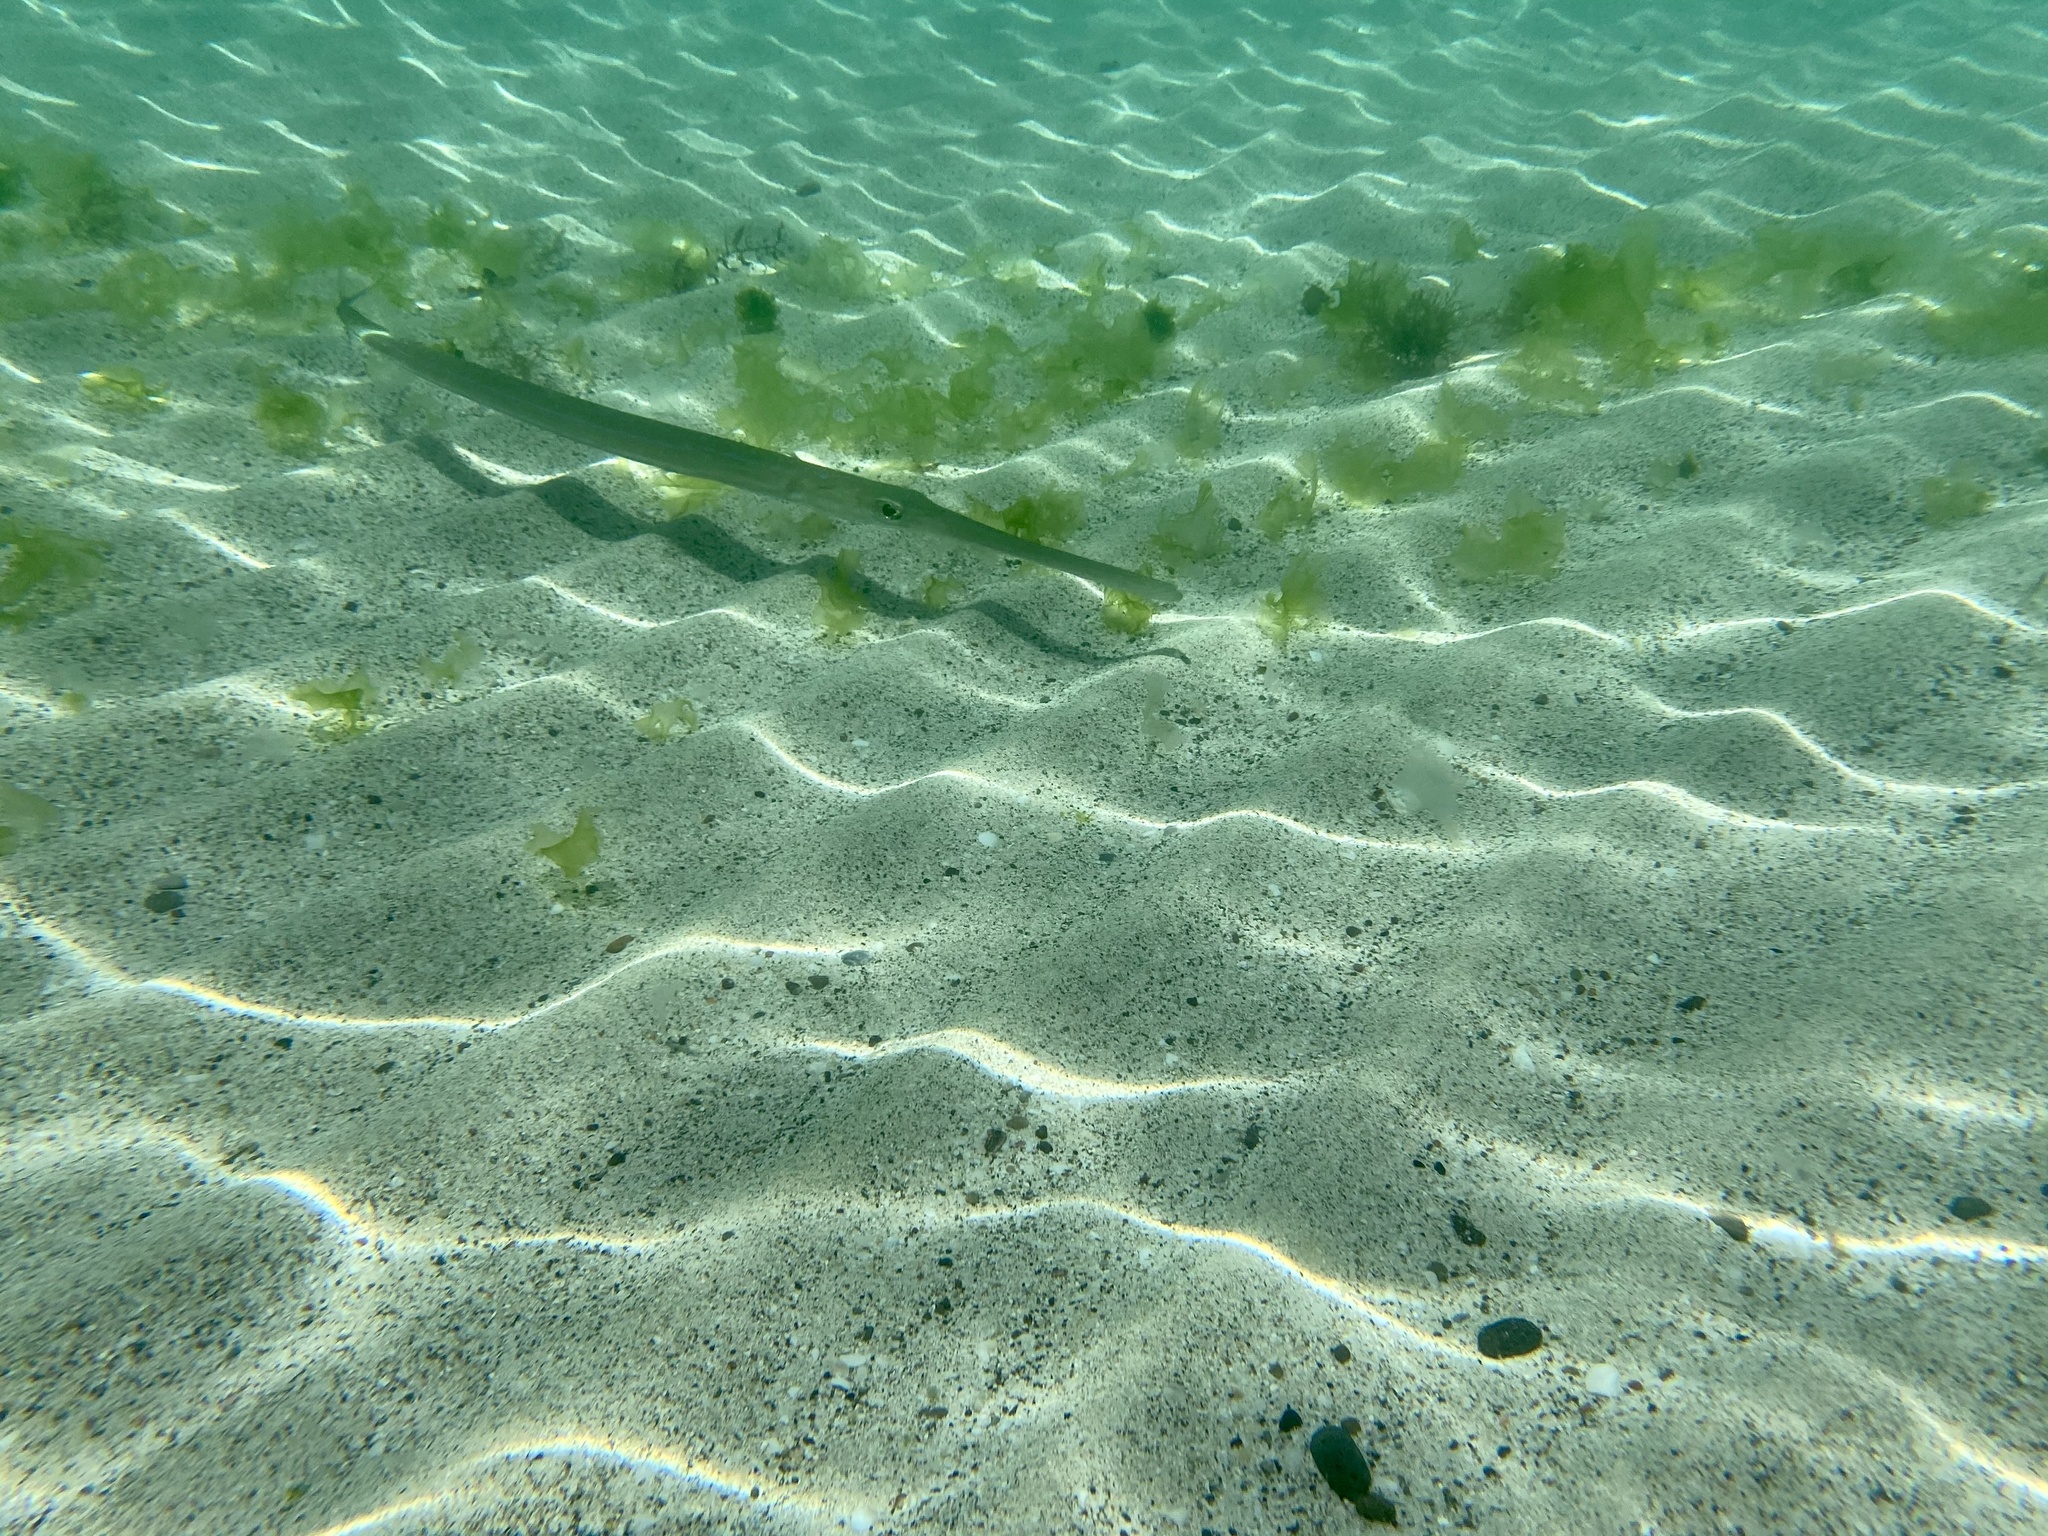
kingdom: Animalia
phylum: Chordata
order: Syngnathiformes
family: Fistulariidae
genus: Fistularia
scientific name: Fistularia commersonii
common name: Bluespotted cornetfish
